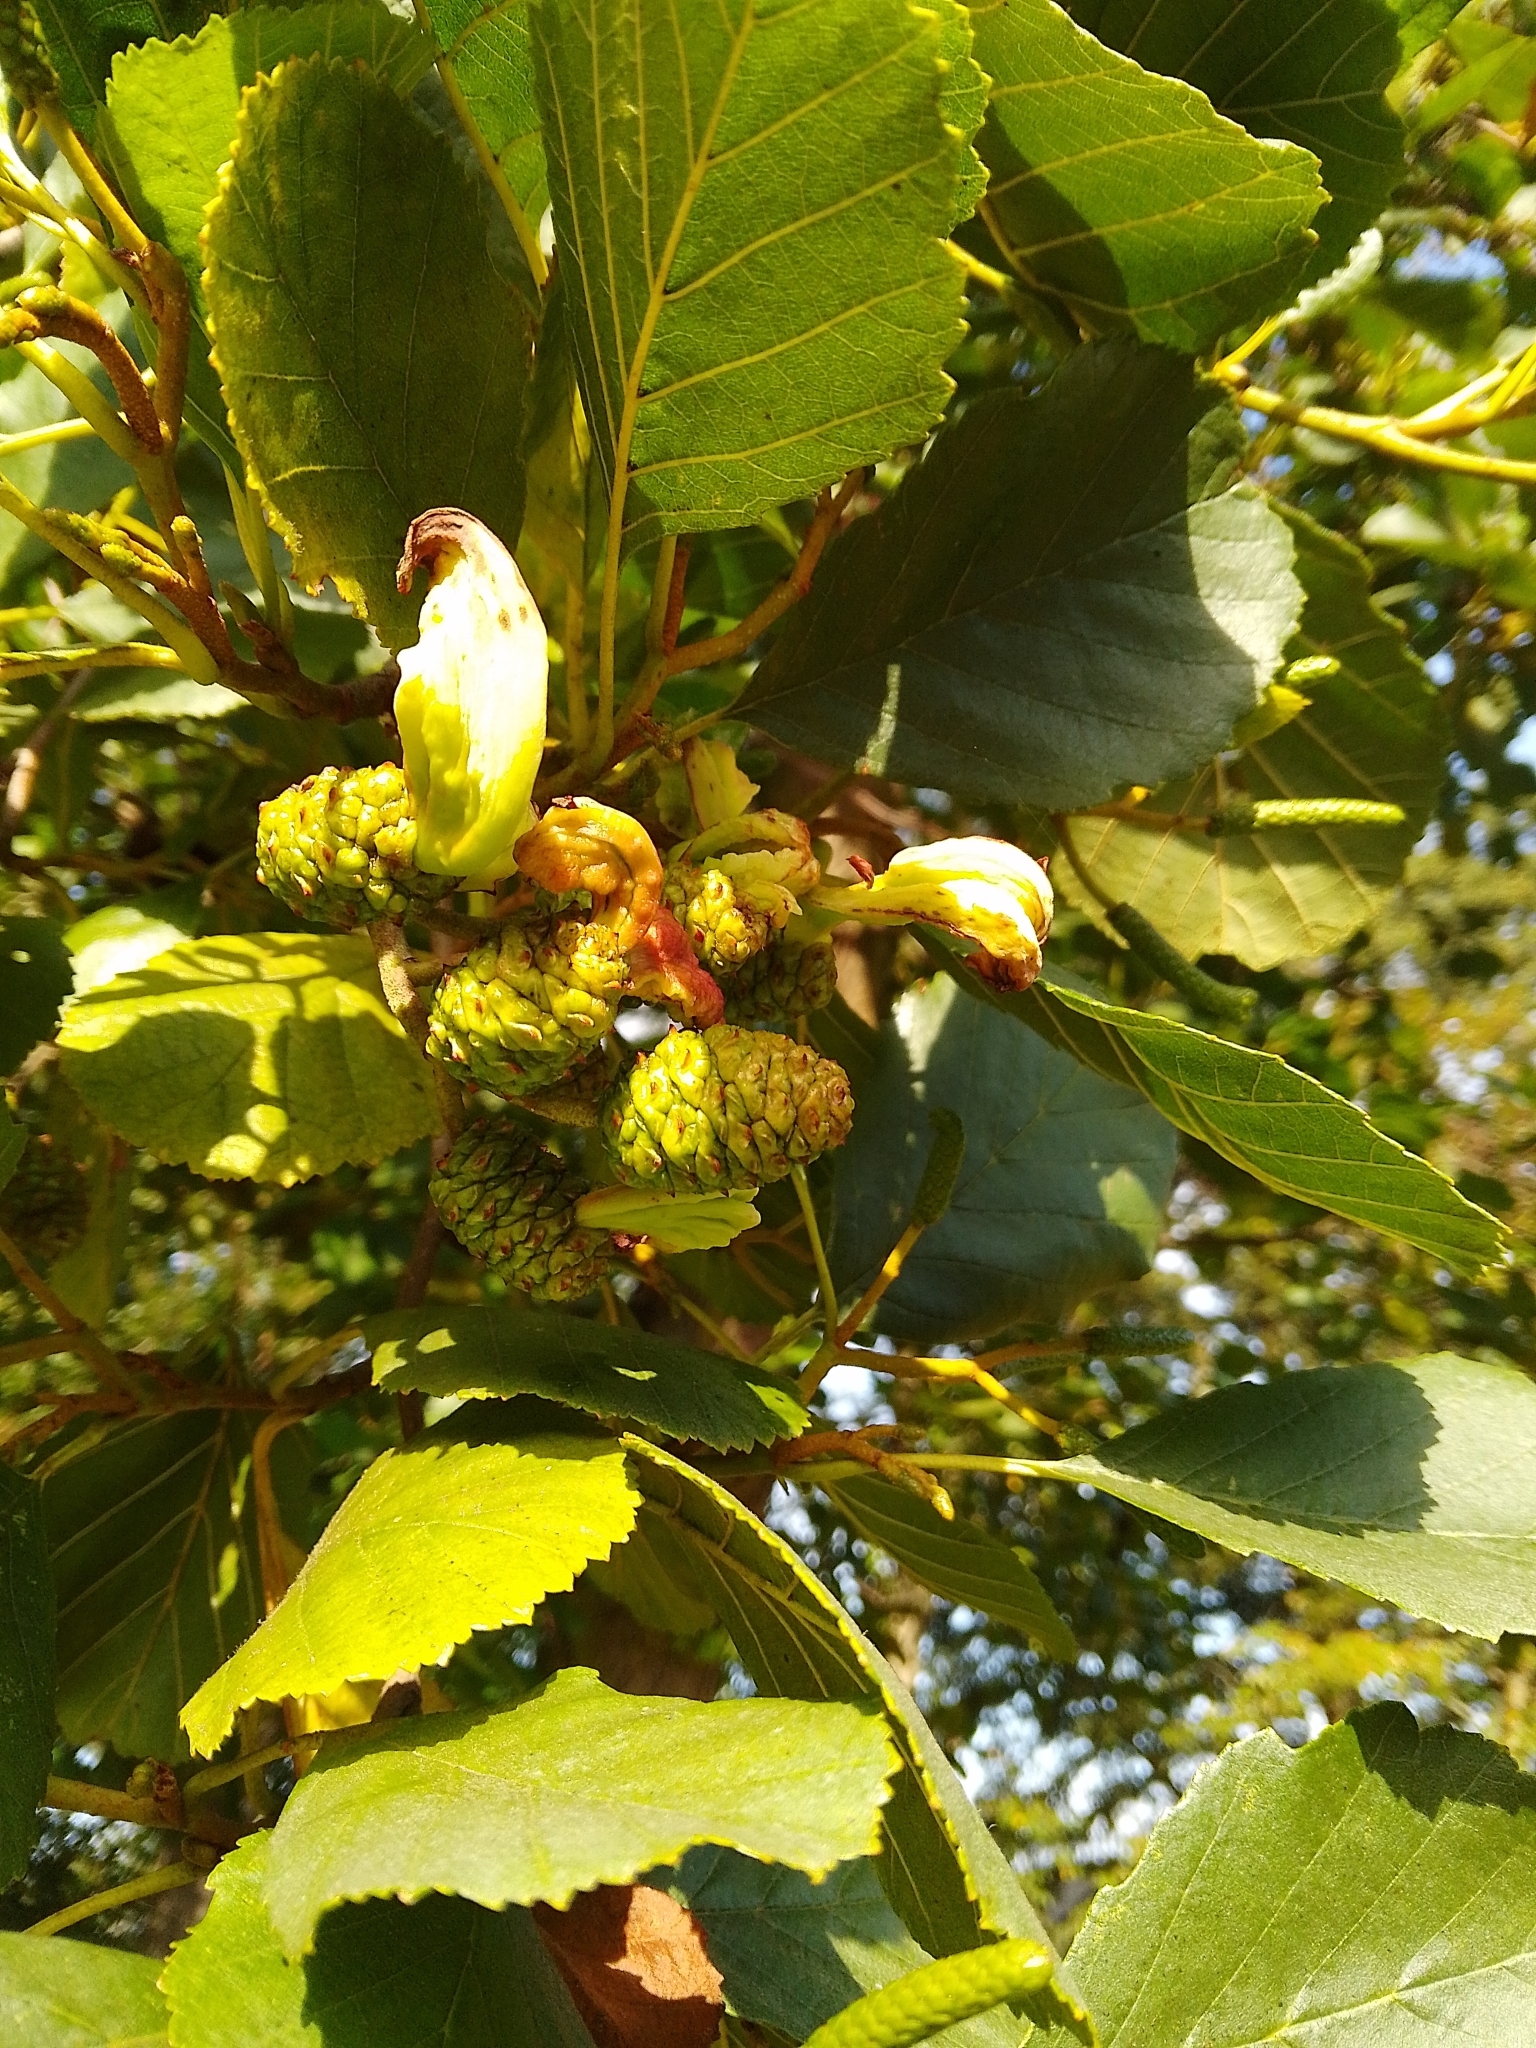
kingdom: Fungi
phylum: Ascomycota
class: Taphrinomycetes
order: Taphrinales
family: Taphrinaceae
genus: Taphrina
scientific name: Taphrina alni
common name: Alder tongue
